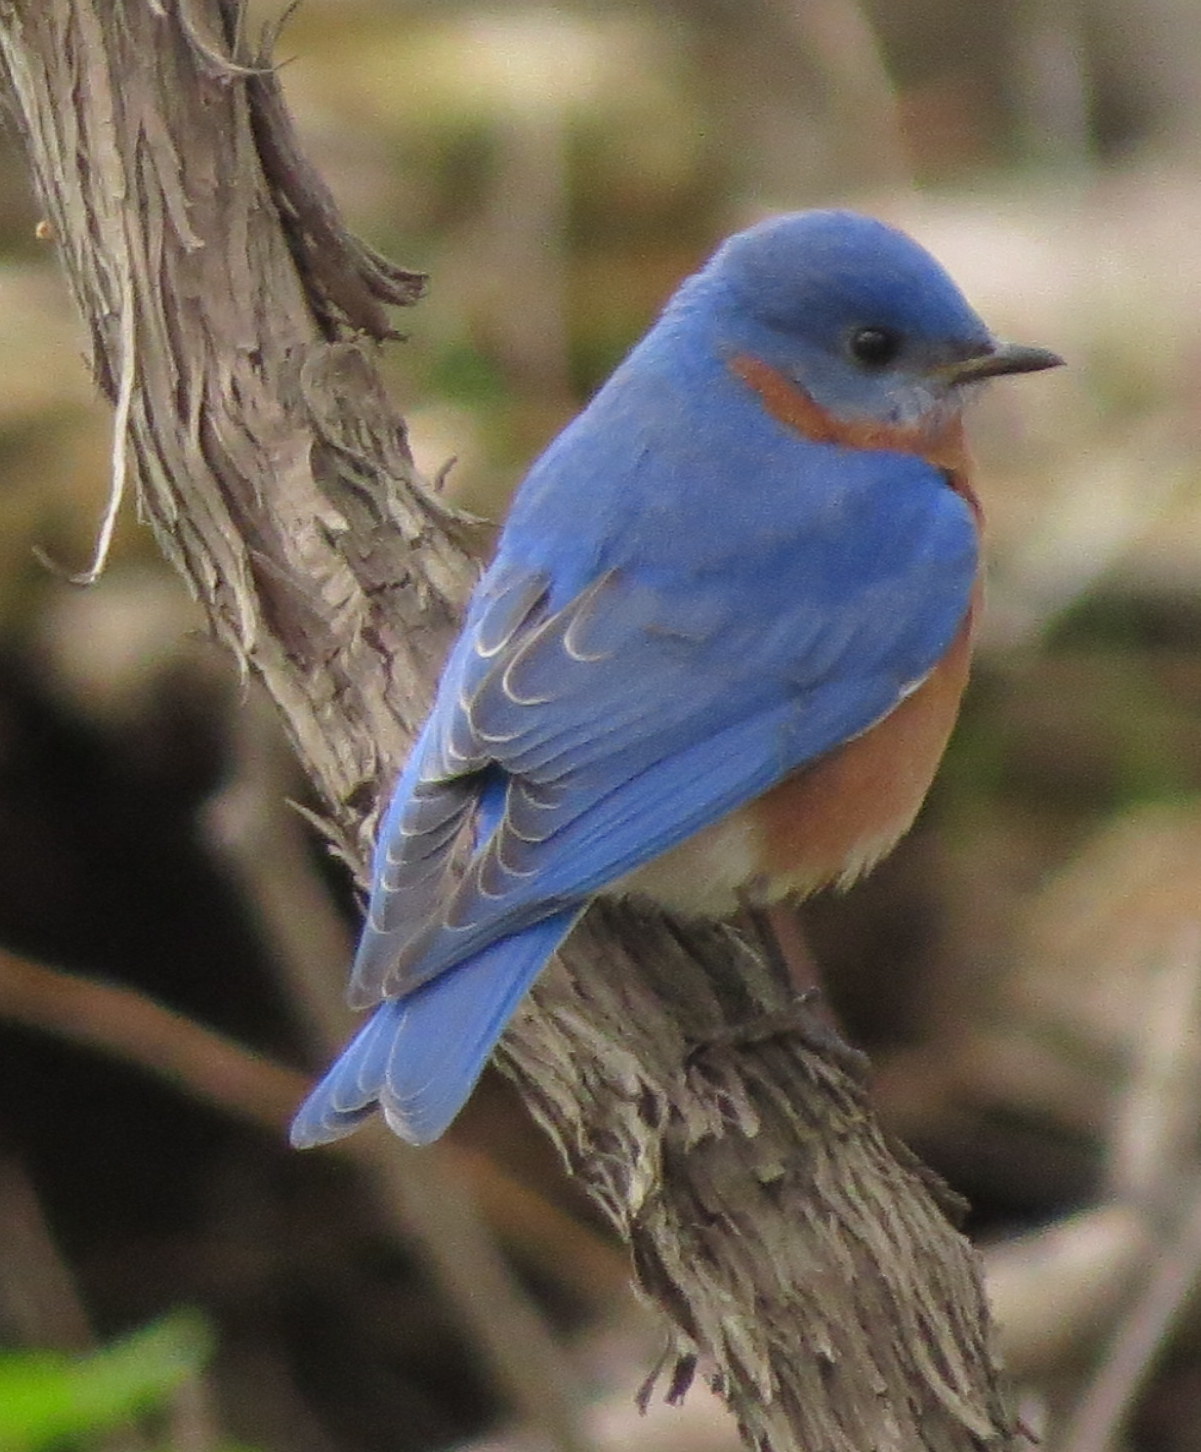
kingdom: Animalia
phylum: Chordata
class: Aves
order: Passeriformes
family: Turdidae
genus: Sialia
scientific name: Sialia sialis
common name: Eastern bluebird
